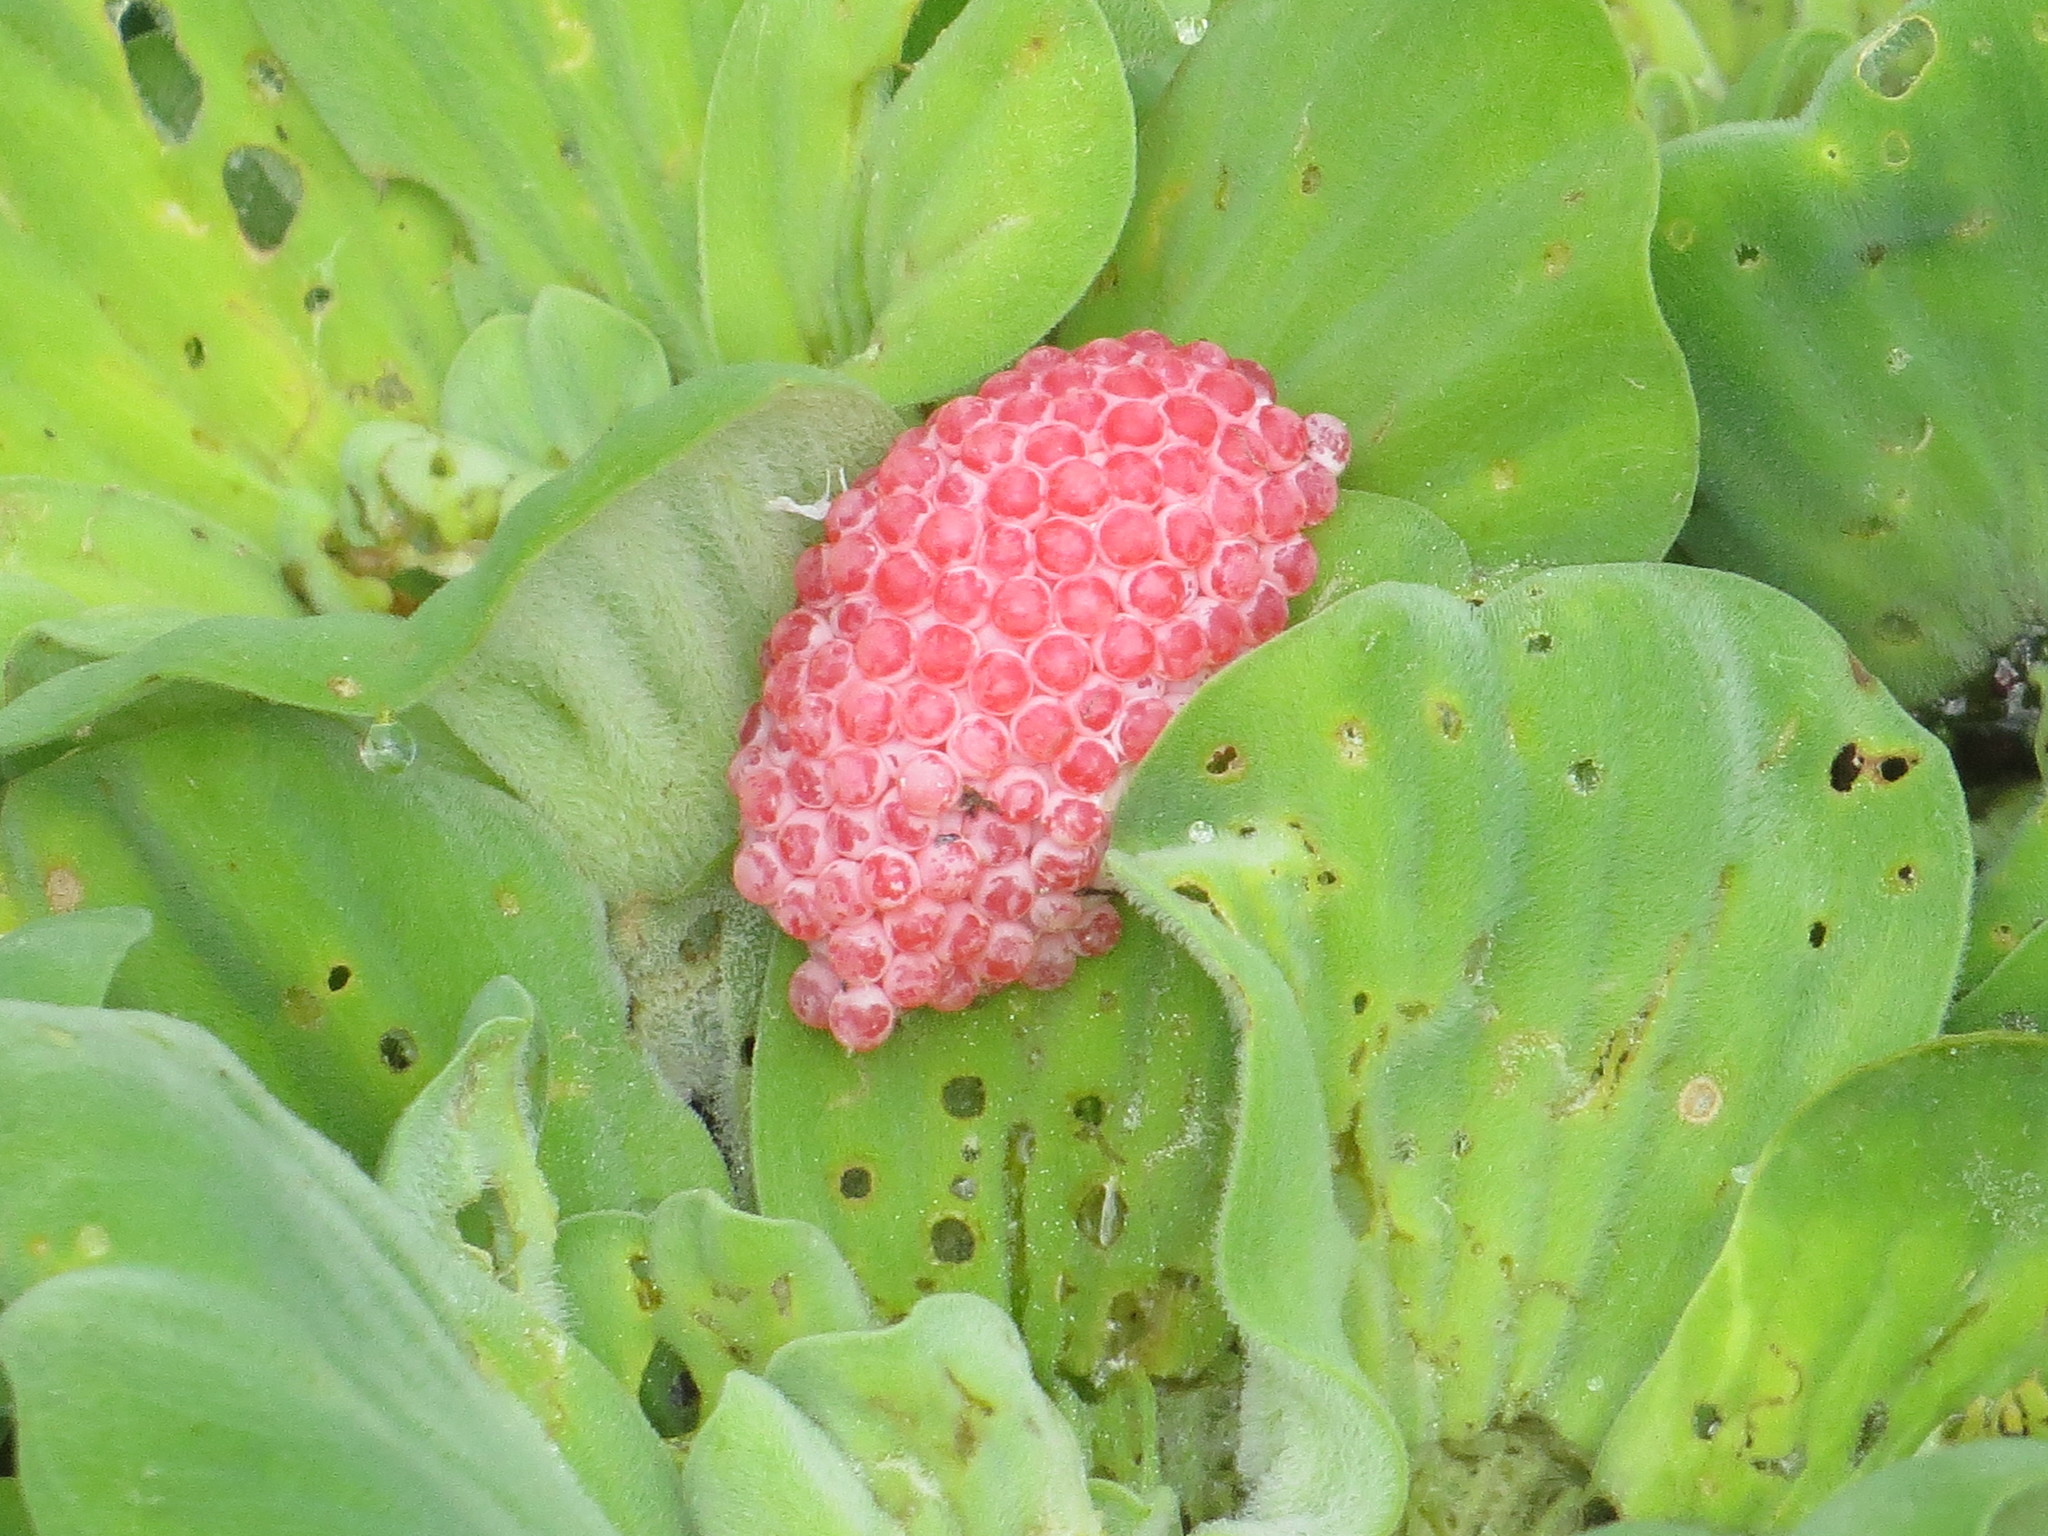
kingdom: Animalia
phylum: Mollusca
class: Gastropoda
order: Architaenioglossa
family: Ampullariidae
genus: Pomacea
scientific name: Pomacea canaliculata
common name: Channeled applesnail
